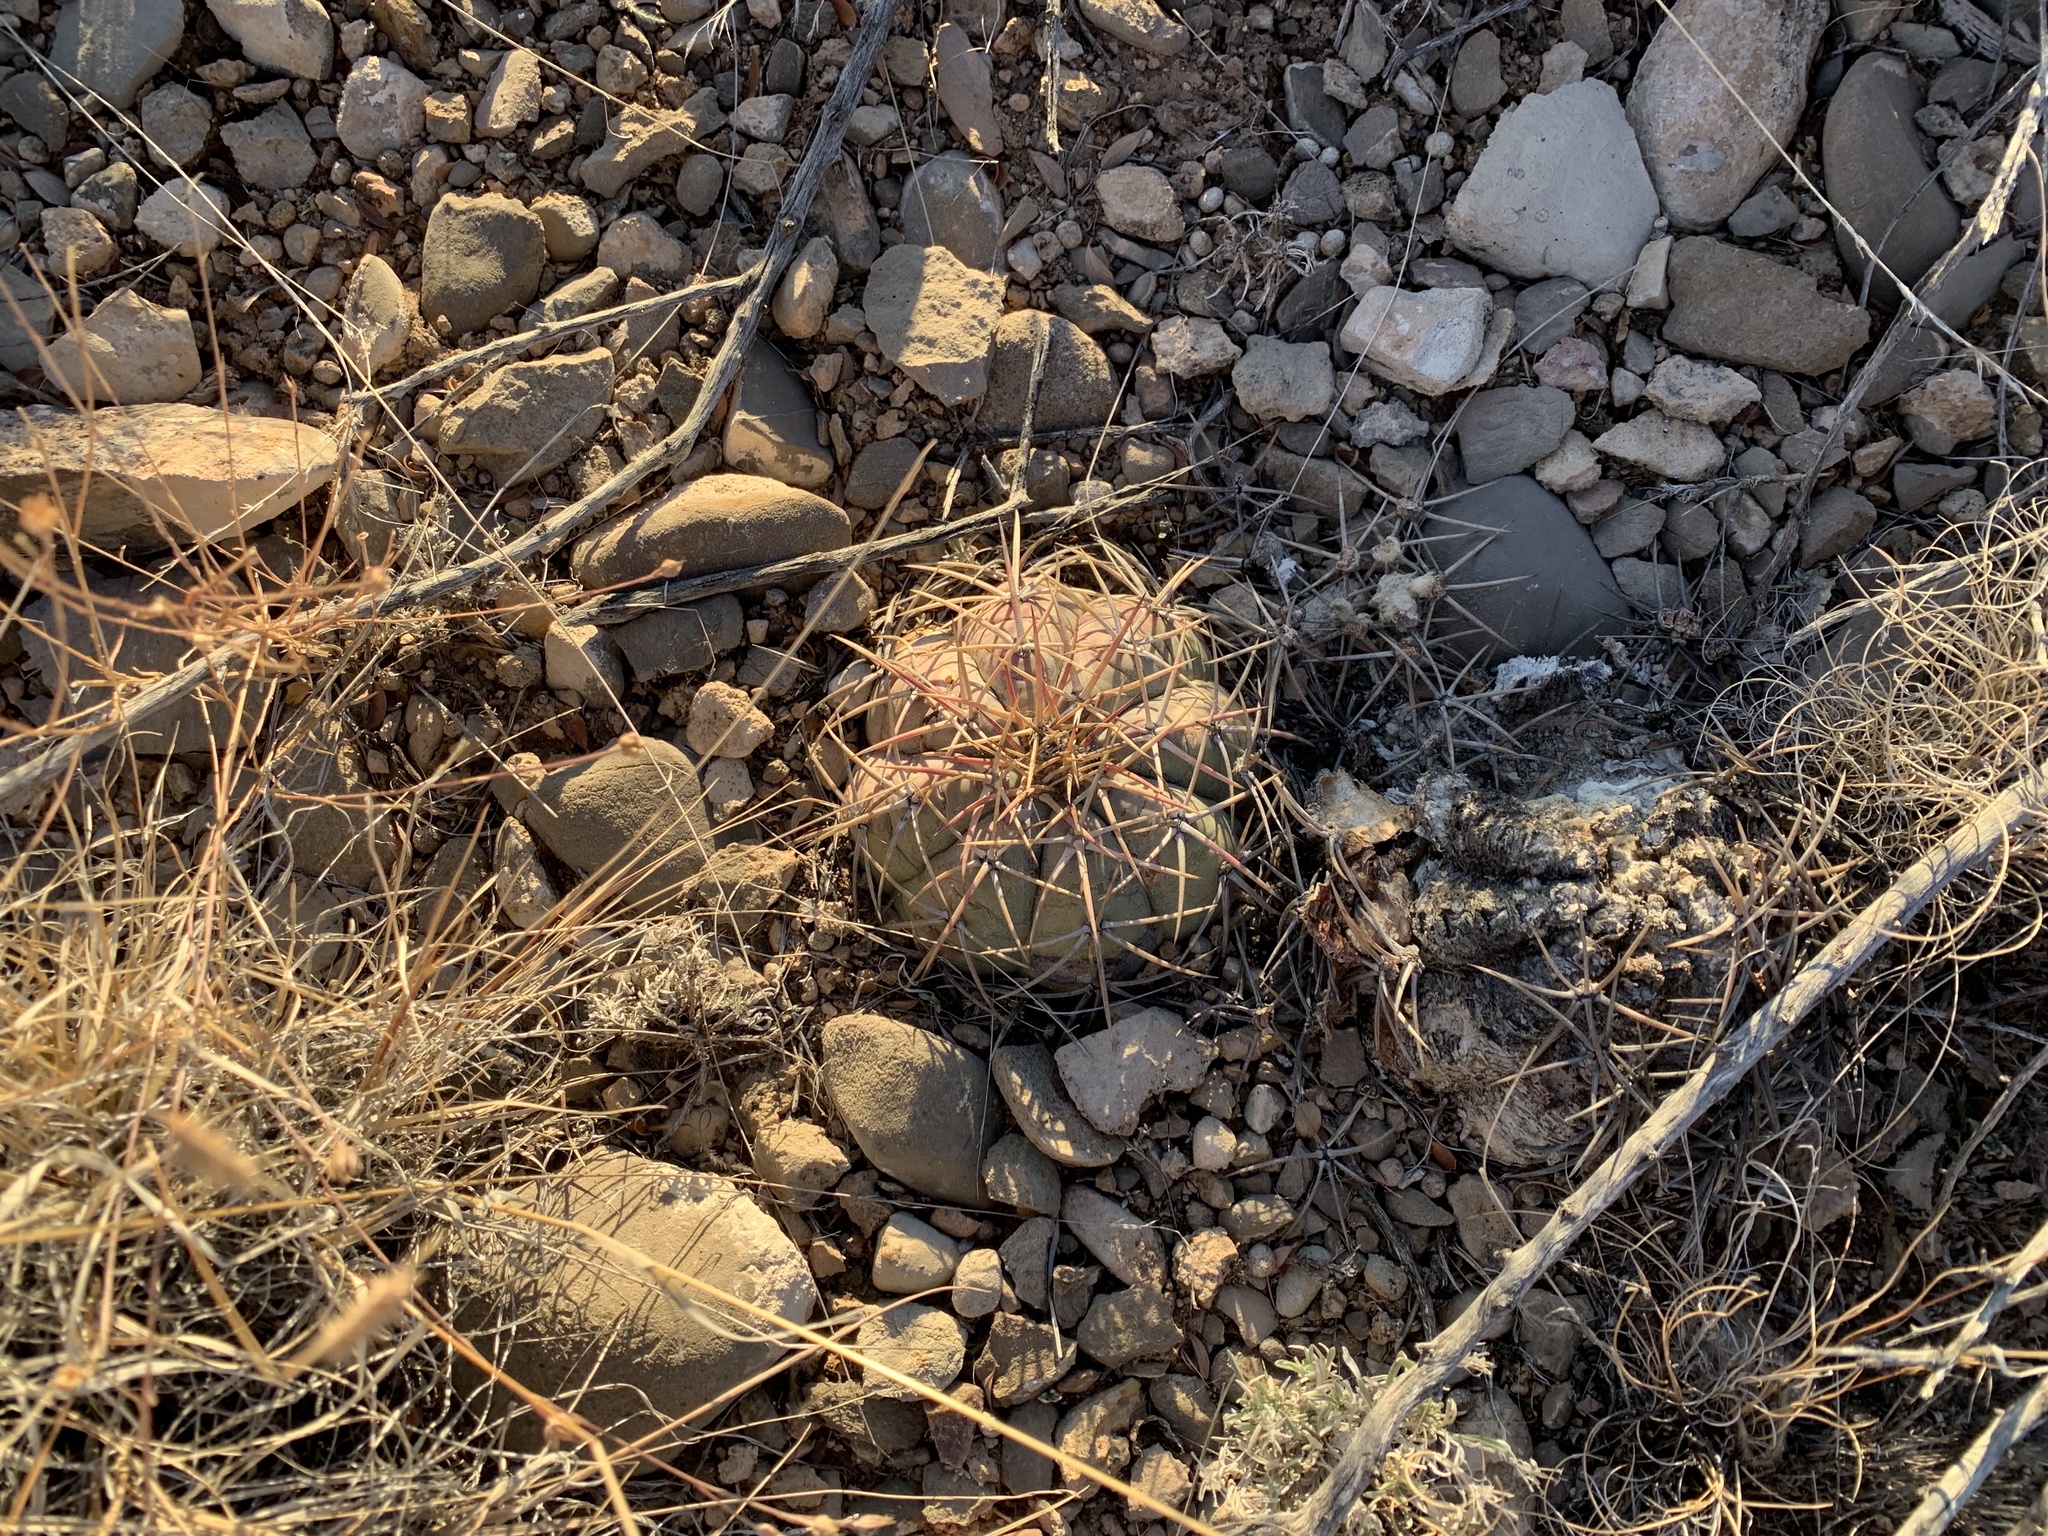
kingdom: Plantae
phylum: Tracheophyta
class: Magnoliopsida
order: Caryophyllales
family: Cactaceae
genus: Echinocactus
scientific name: Echinocactus horizonthalonius
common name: Devilshead
